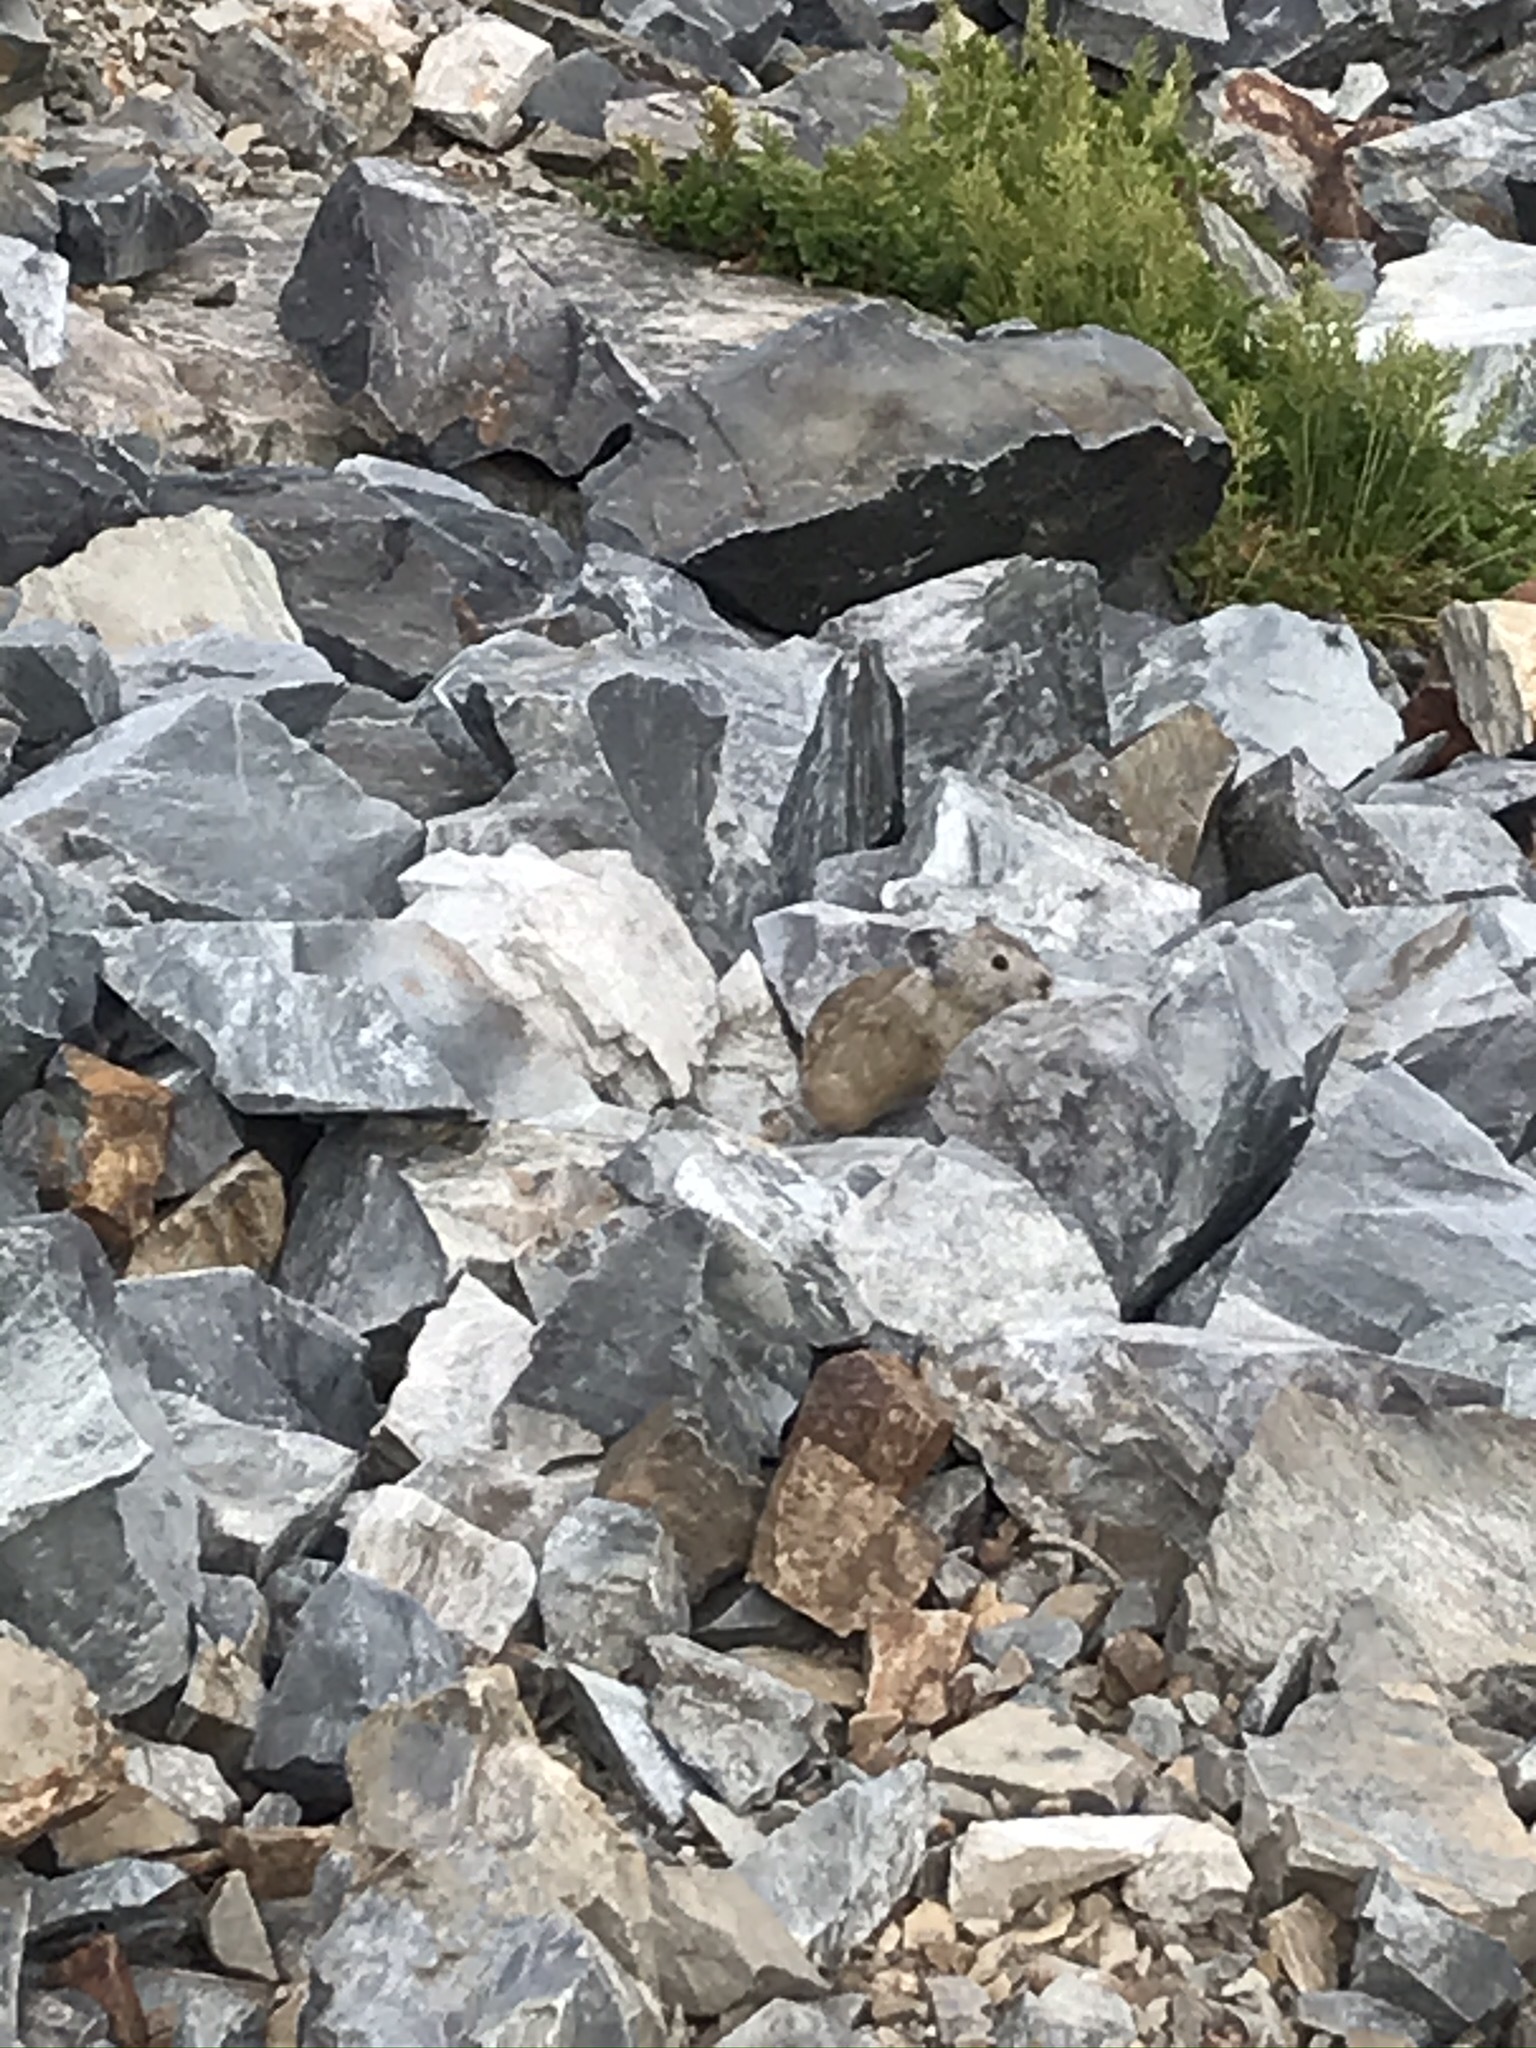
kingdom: Animalia
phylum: Chordata
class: Mammalia
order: Lagomorpha
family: Ochotonidae
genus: Ochotona
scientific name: Ochotona princeps
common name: American pika
